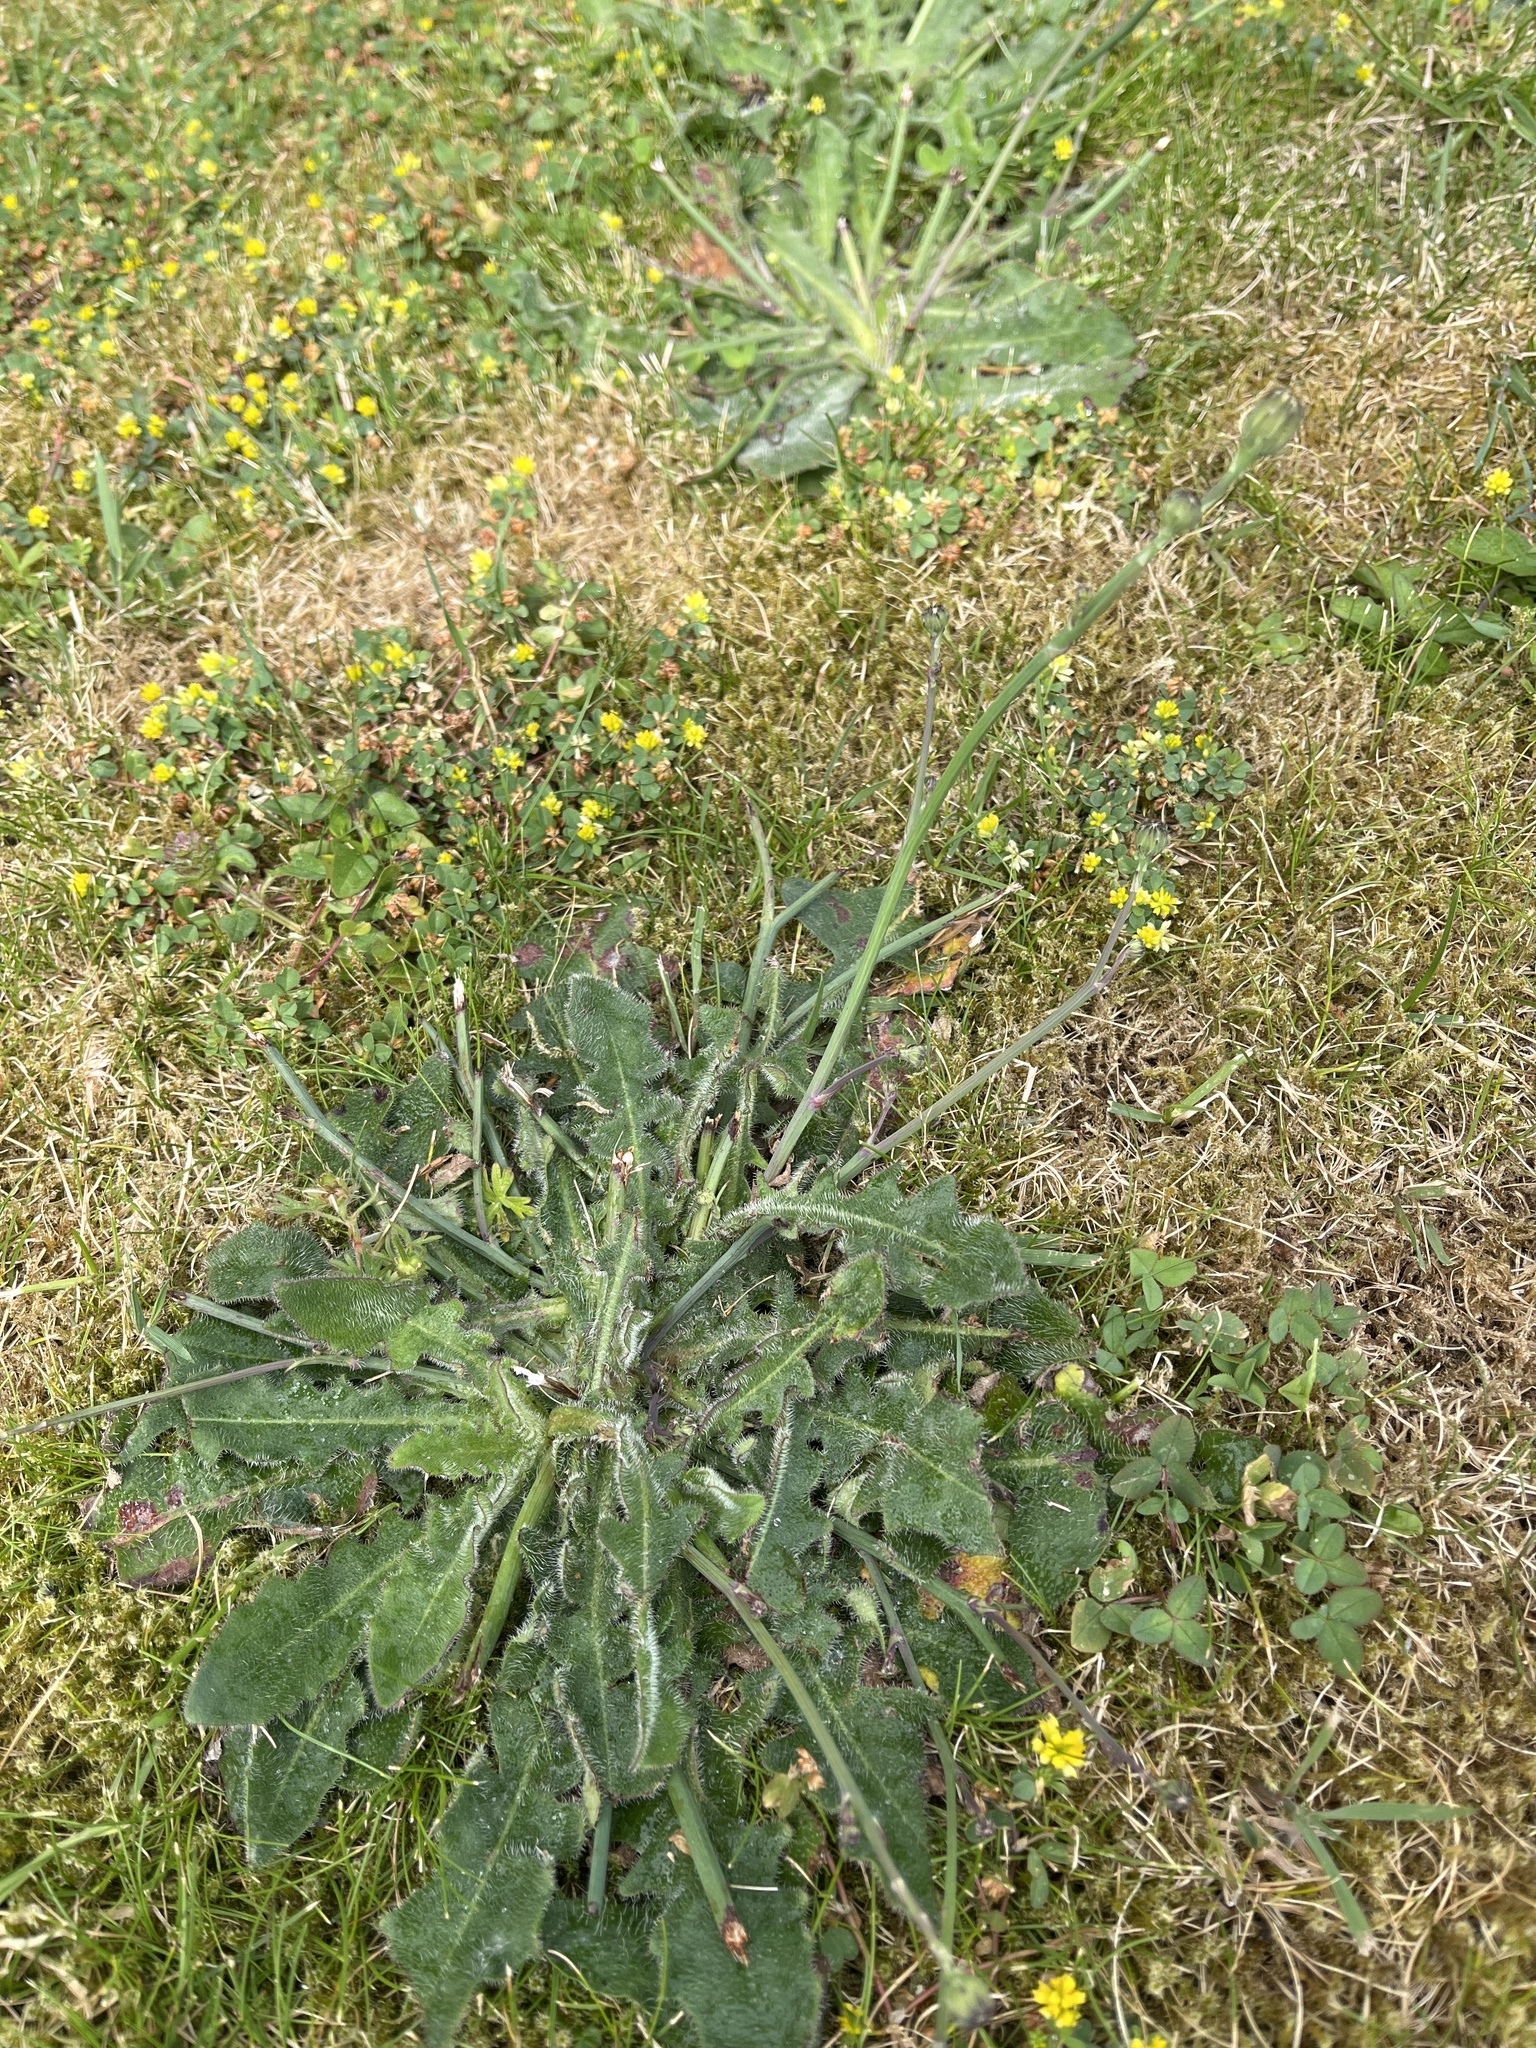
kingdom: Plantae
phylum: Tracheophyta
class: Magnoliopsida
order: Asterales
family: Asteraceae
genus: Hypochaeris
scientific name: Hypochaeris radicata
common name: Flatweed
